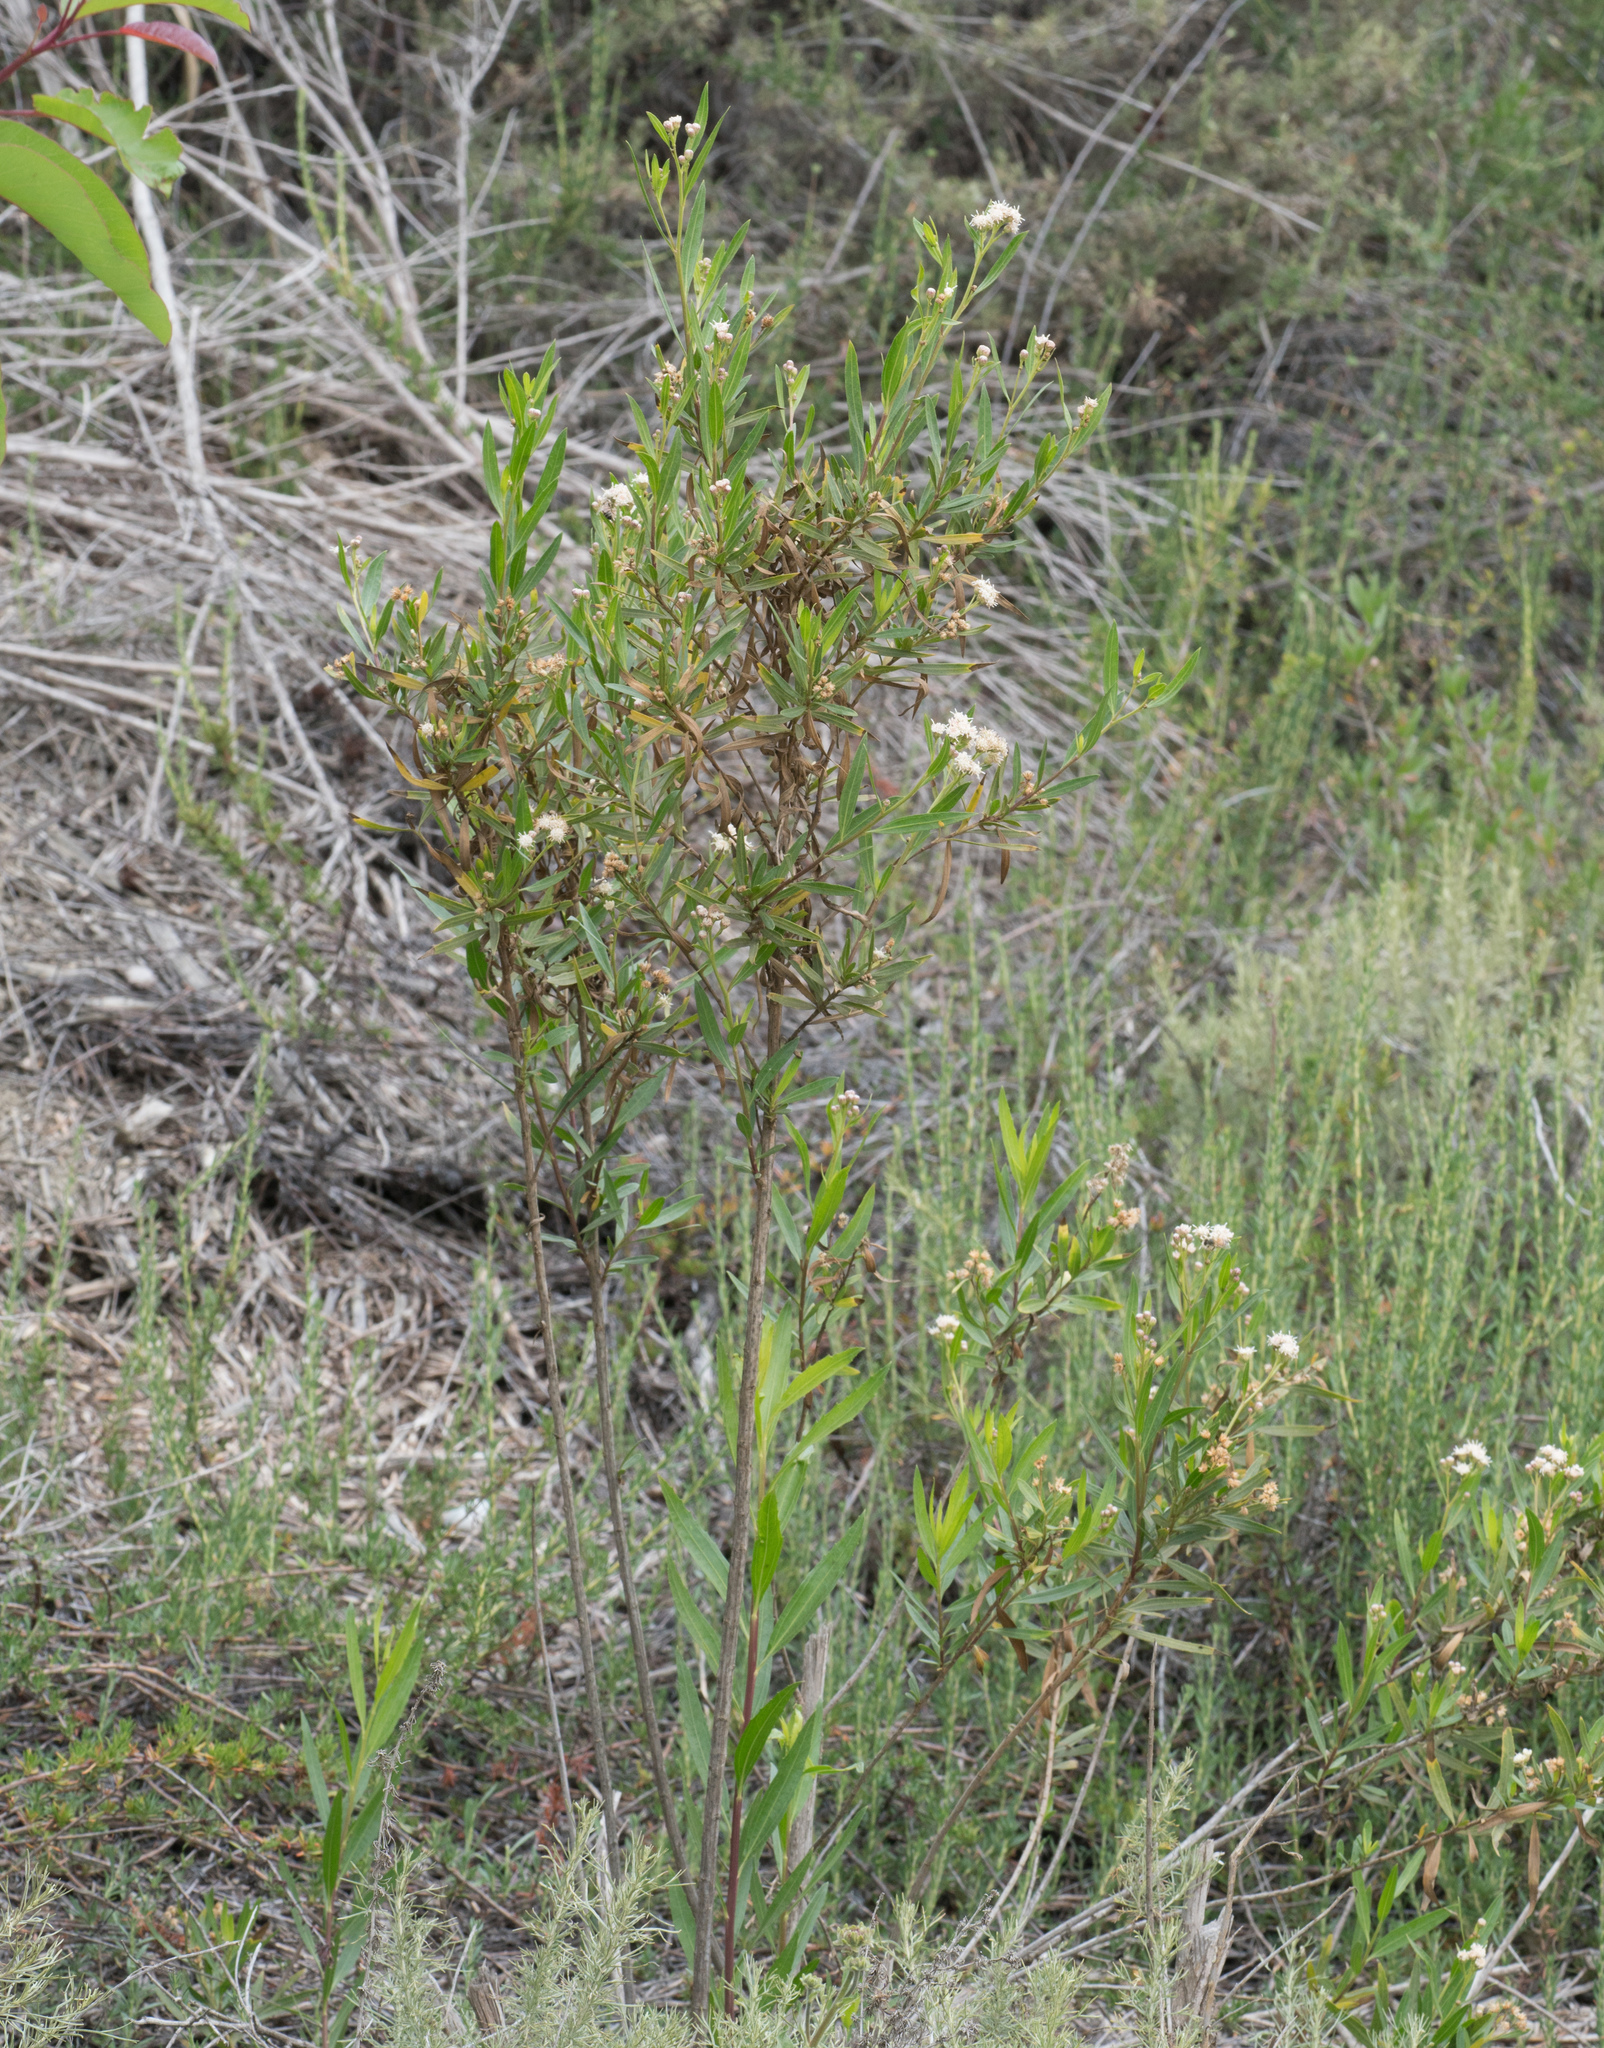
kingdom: Plantae
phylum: Tracheophyta
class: Magnoliopsida
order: Asterales
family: Asteraceae
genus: Baccharis
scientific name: Baccharis salicifolia
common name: Sticky baccharis
